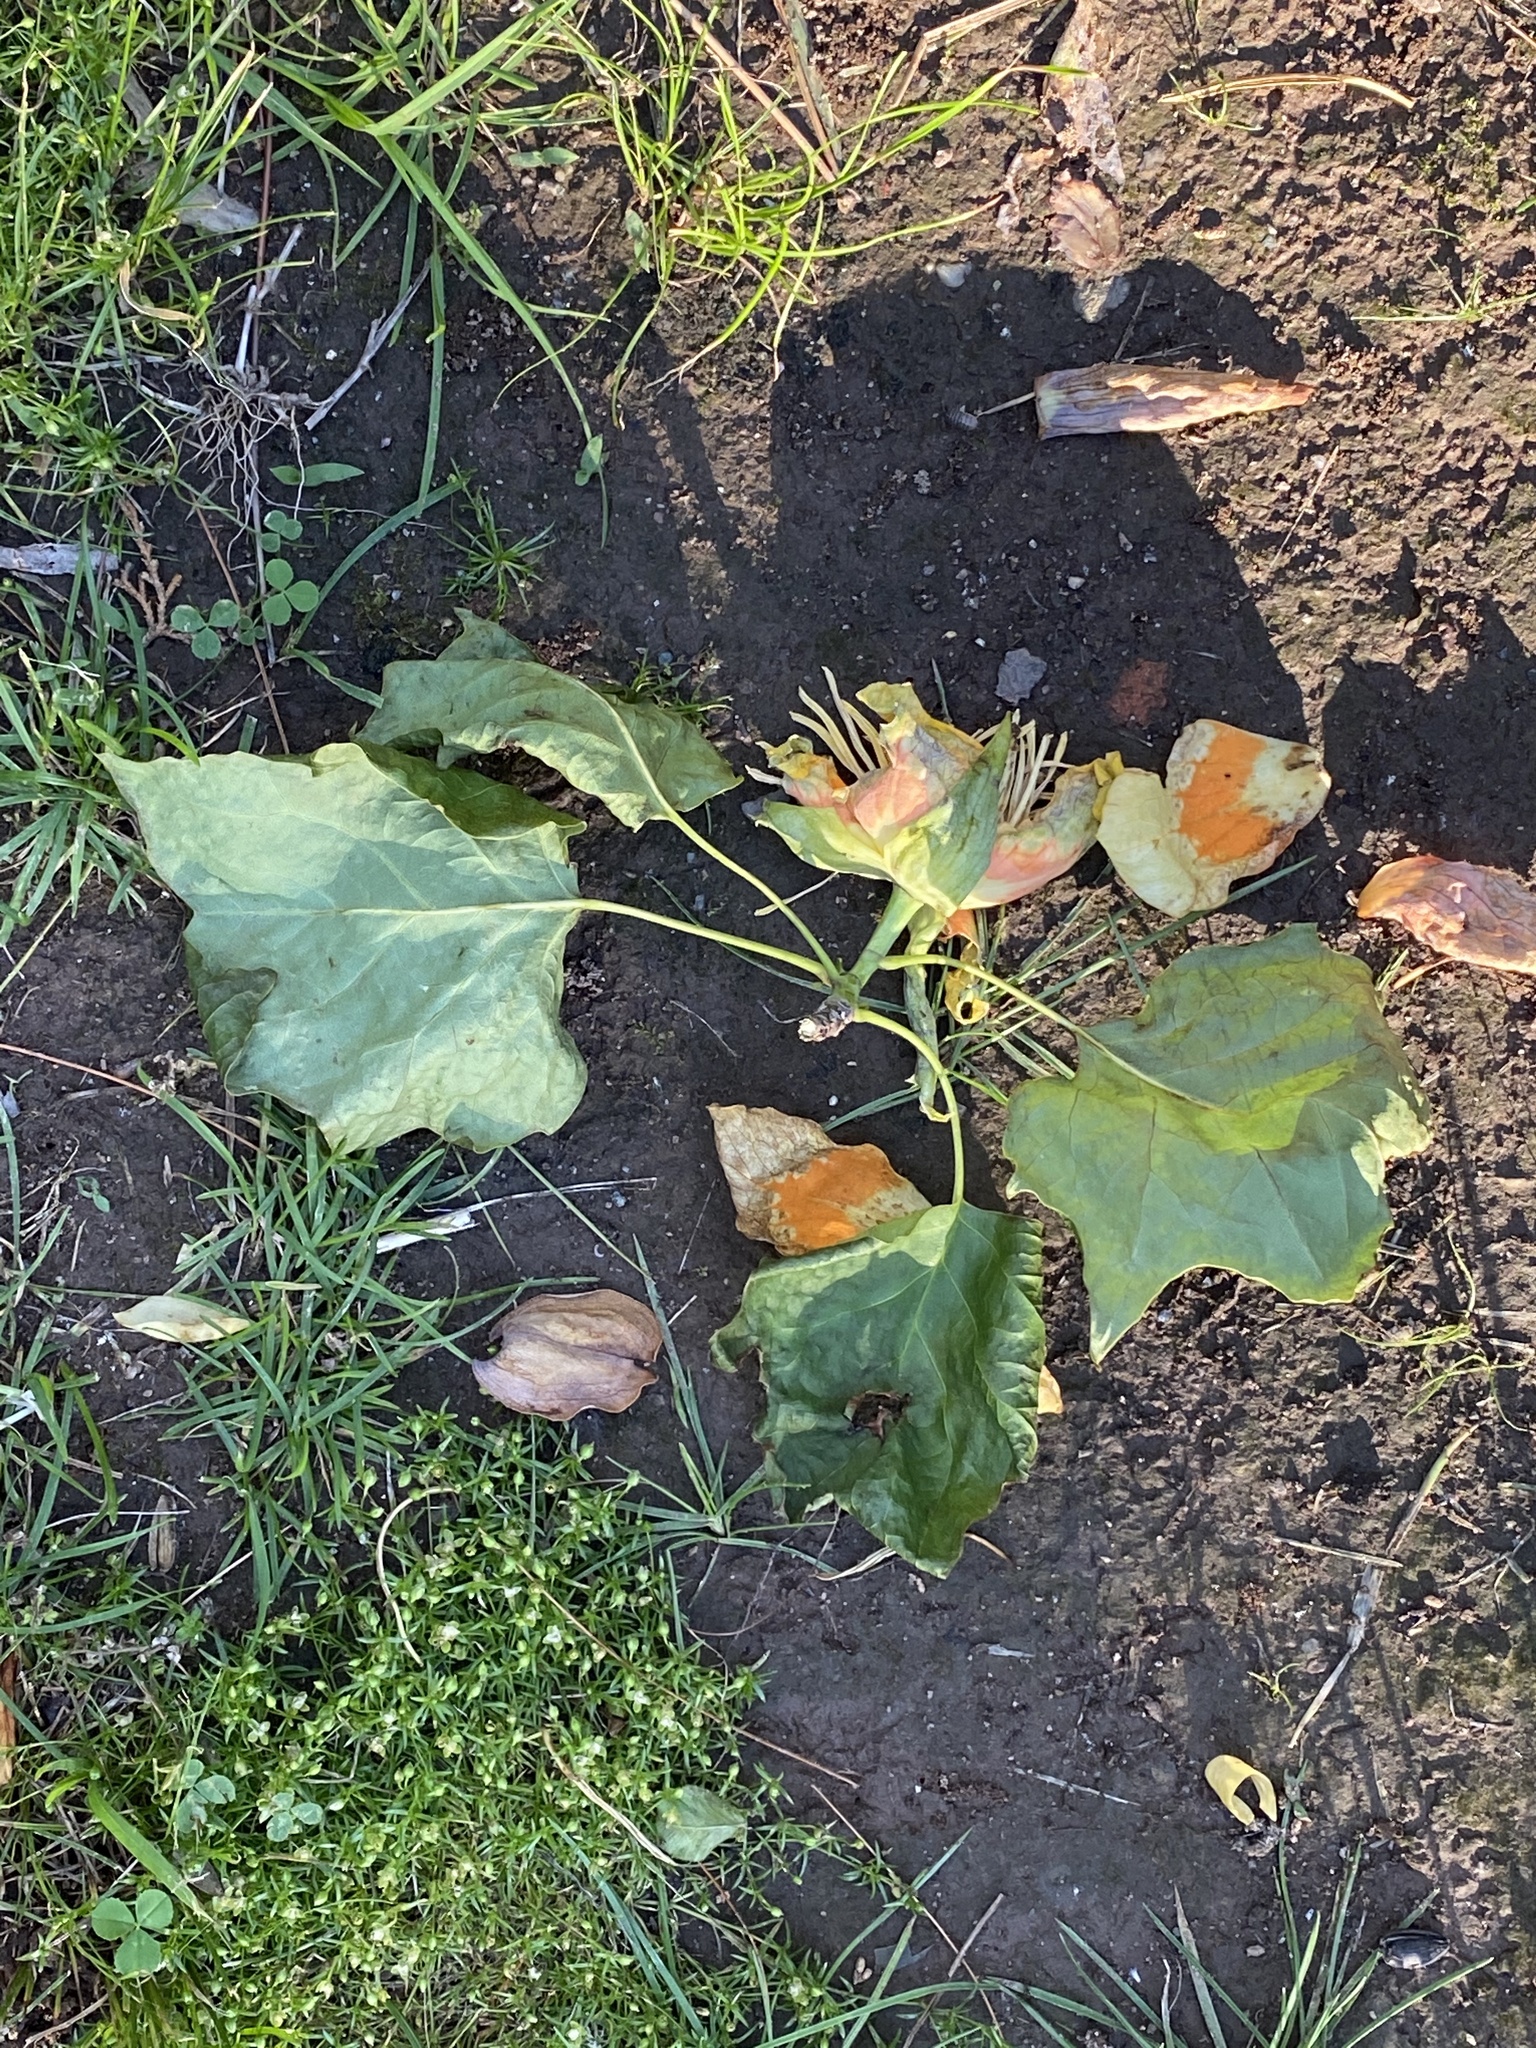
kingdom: Plantae
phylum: Tracheophyta
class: Magnoliopsida
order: Magnoliales
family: Magnoliaceae
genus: Liriodendron
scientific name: Liriodendron tulipifera
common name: Tulip tree
